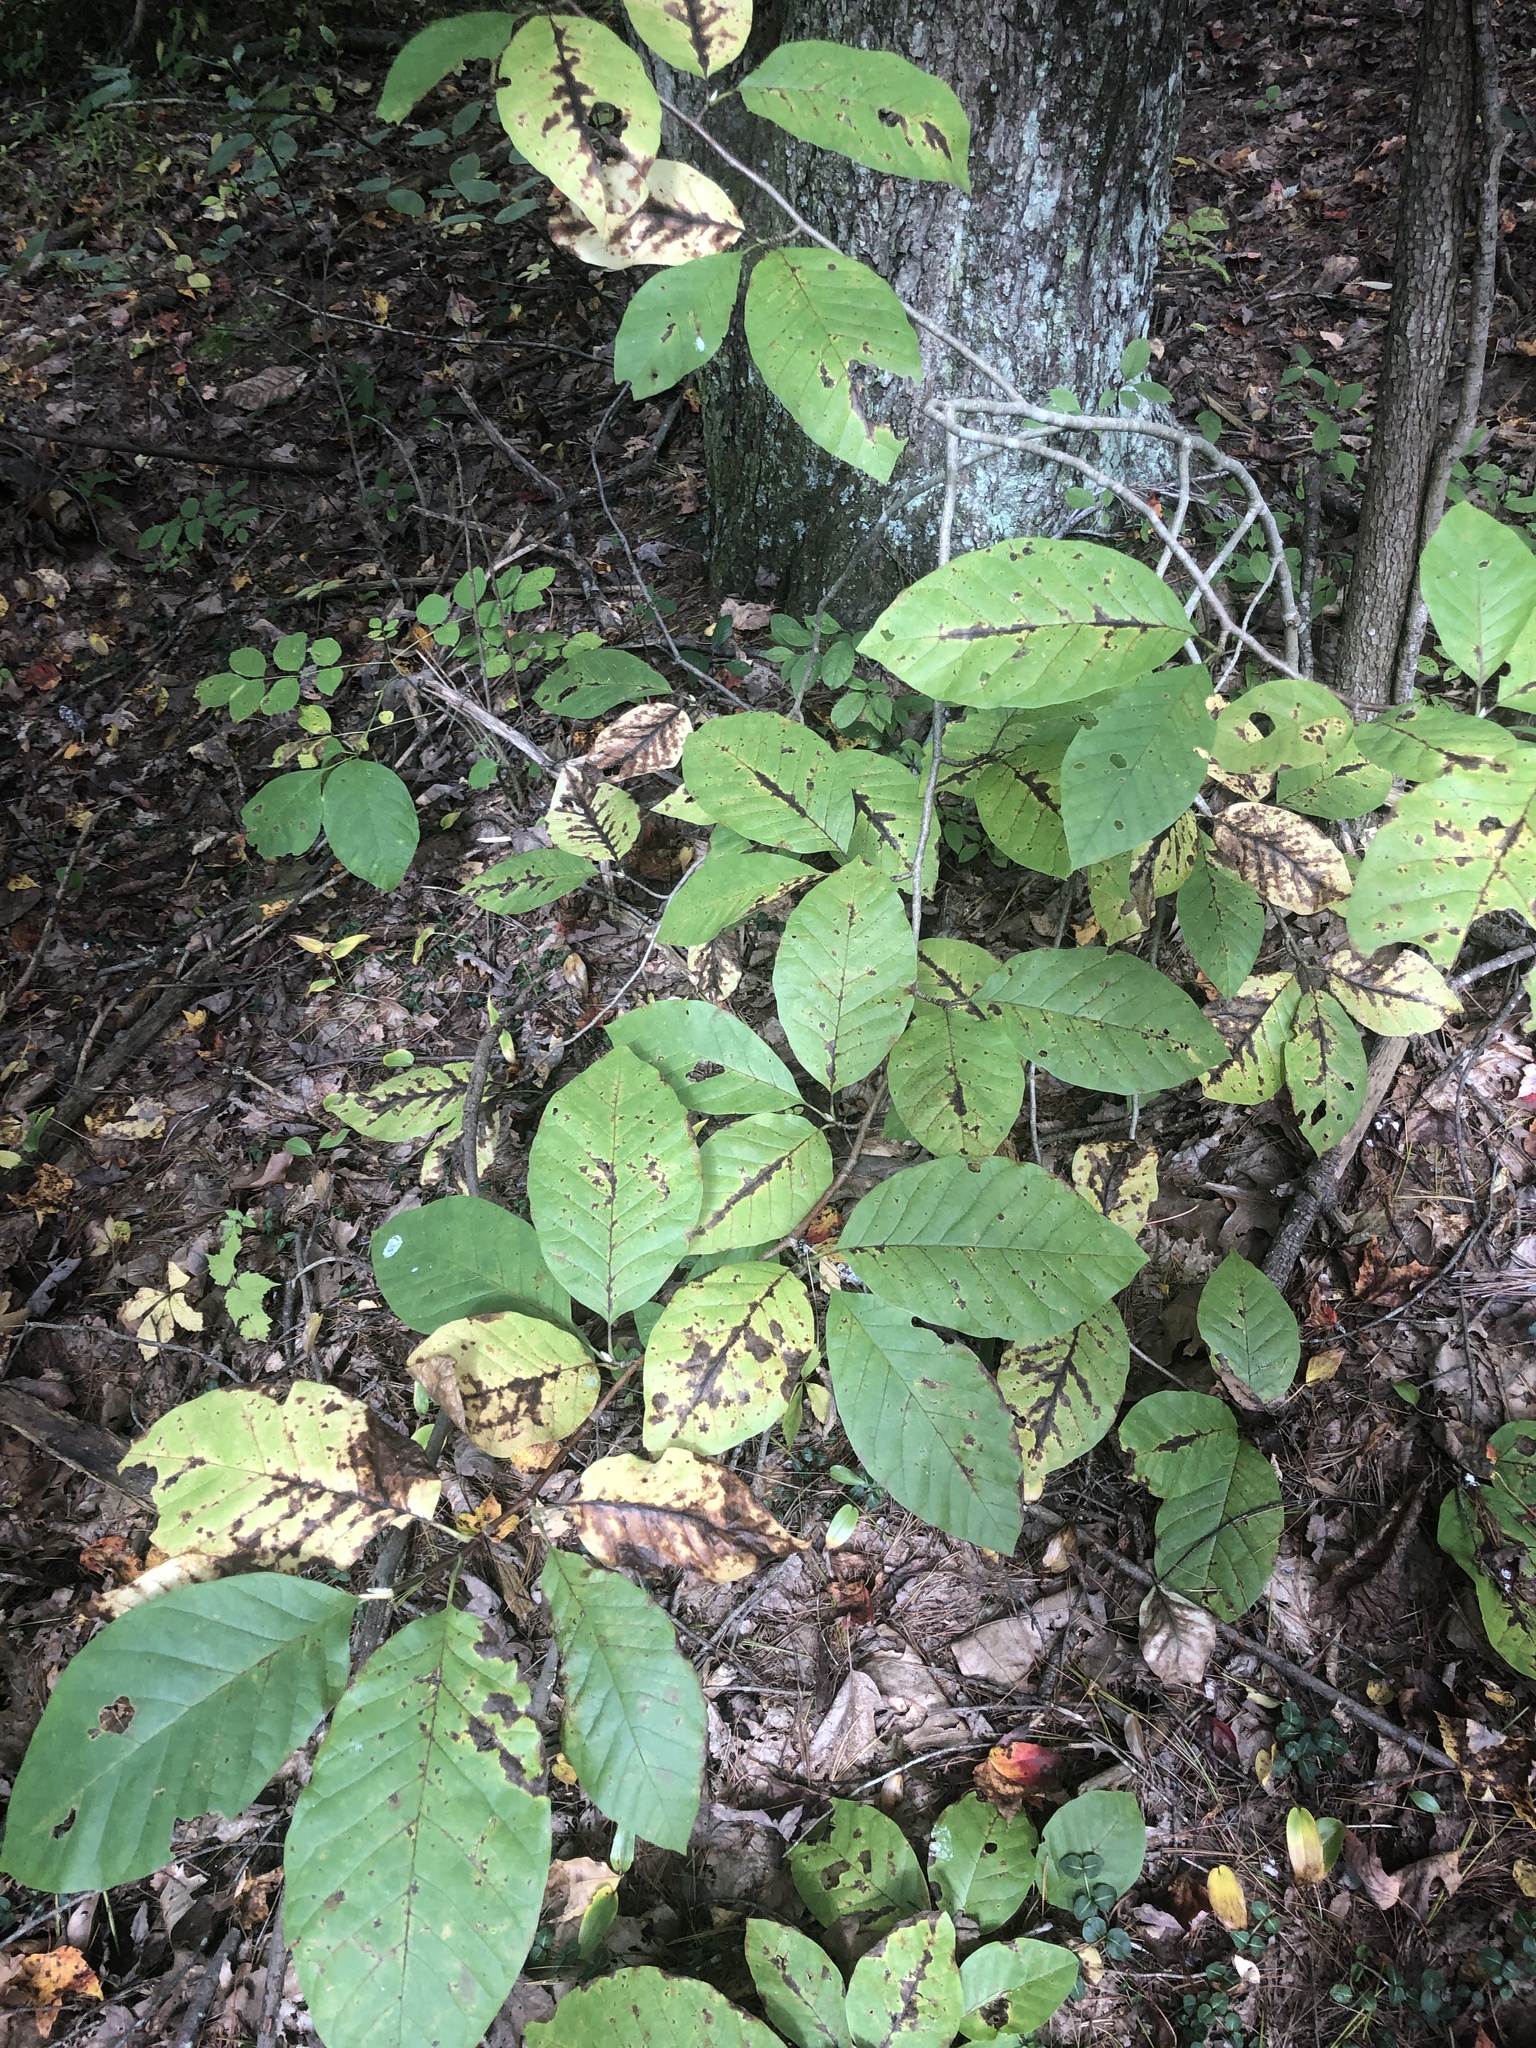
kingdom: Plantae
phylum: Tracheophyta
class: Magnoliopsida
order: Magnoliales
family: Magnoliaceae
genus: Magnolia
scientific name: Magnolia acuminata
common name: Cucumber magnolia
